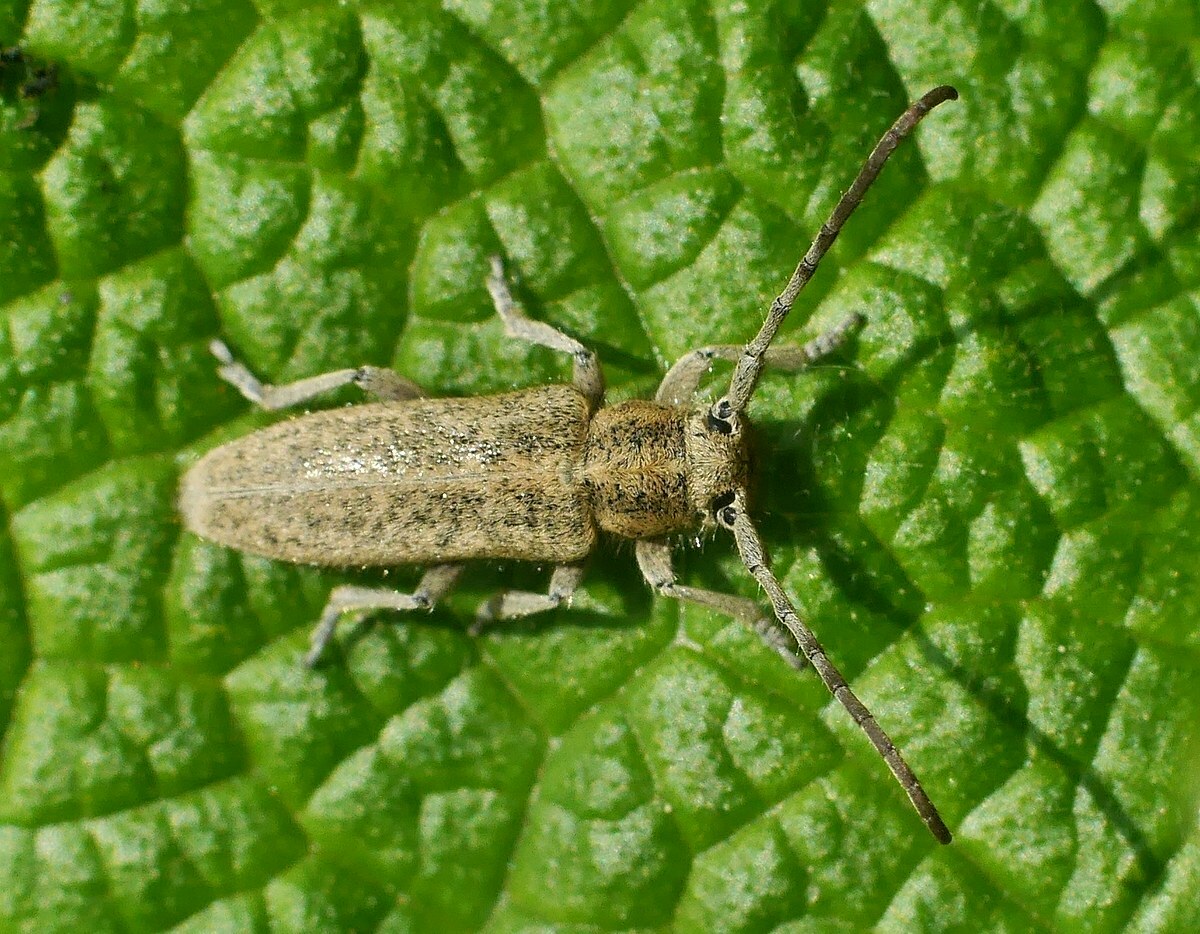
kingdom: Animalia
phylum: Arthropoda
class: Insecta
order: Coleoptera
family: Cerambycidae
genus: Phytoecia
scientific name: Phytoecia hirsutula
